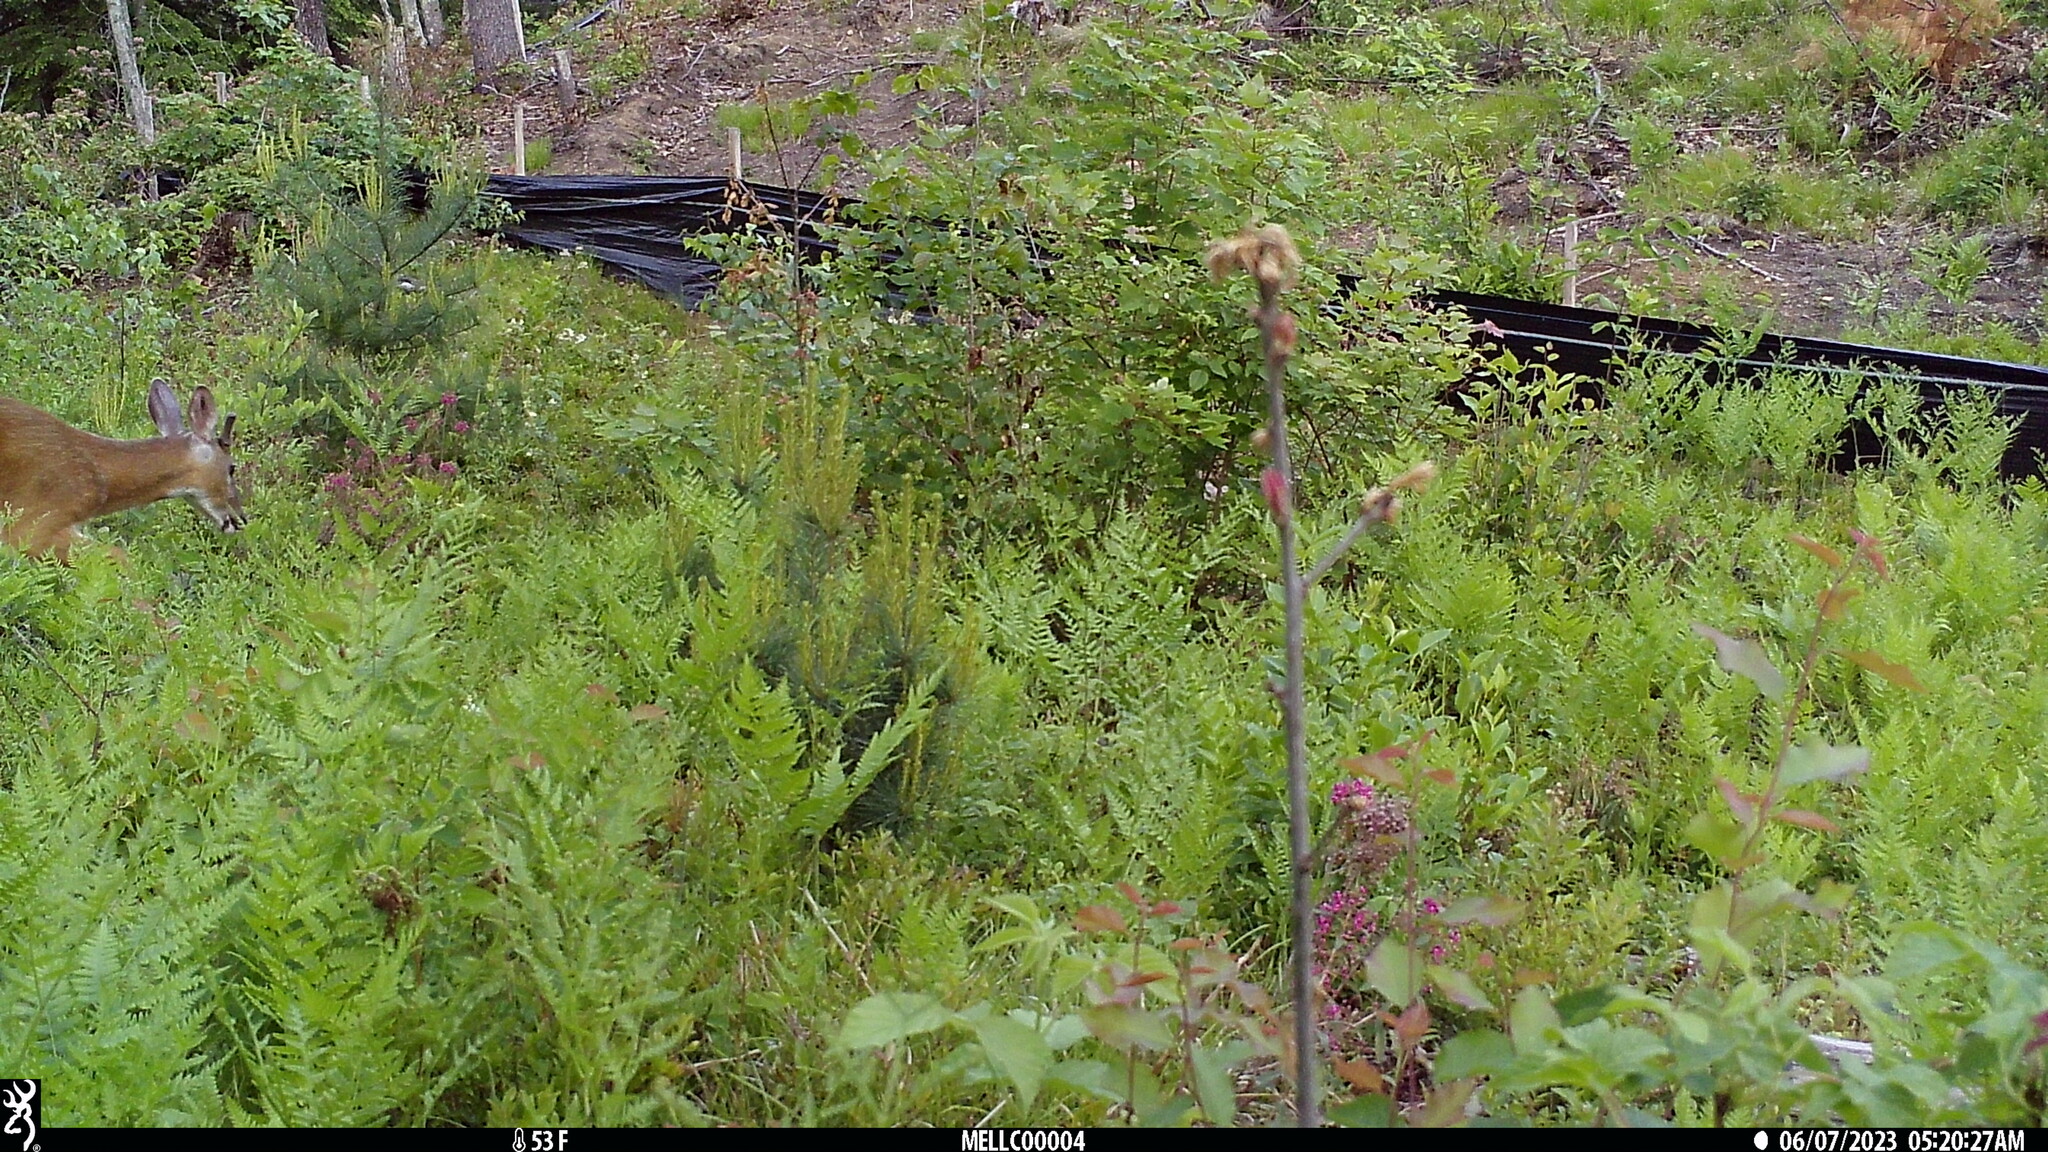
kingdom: Animalia
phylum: Chordata
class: Mammalia
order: Artiodactyla
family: Cervidae
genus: Odocoileus
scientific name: Odocoileus virginianus
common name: White-tailed deer
